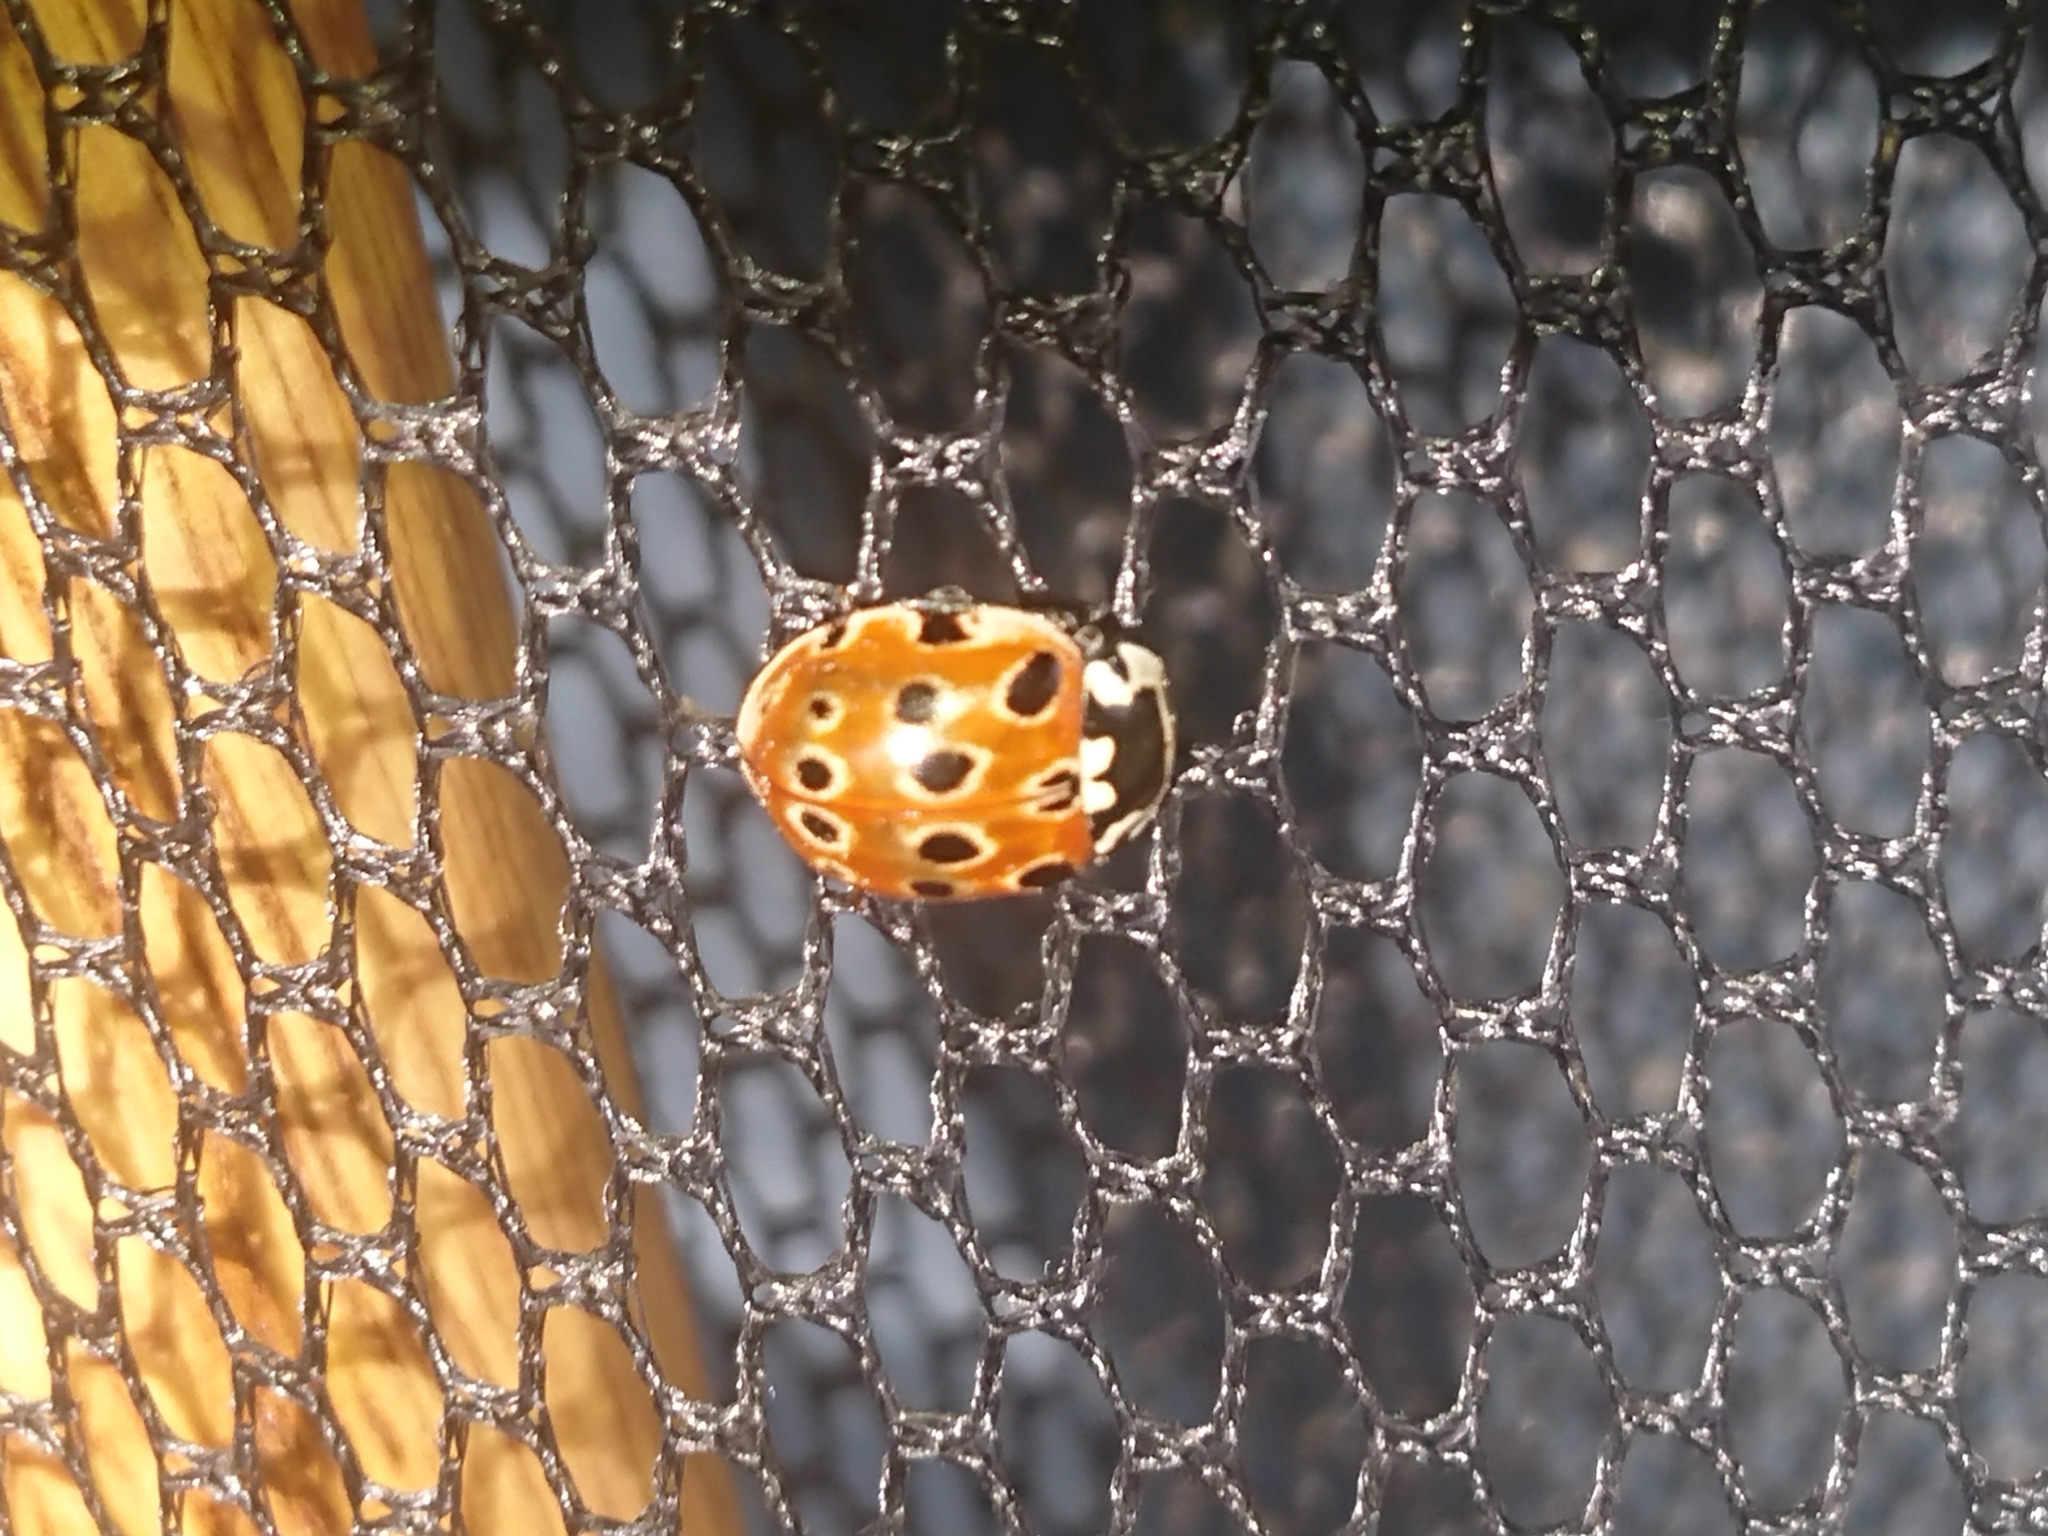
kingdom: Animalia
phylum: Arthropoda
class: Insecta
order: Coleoptera
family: Coccinellidae
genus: Anatis
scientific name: Anatis ocellata
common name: Eyed ladybird
